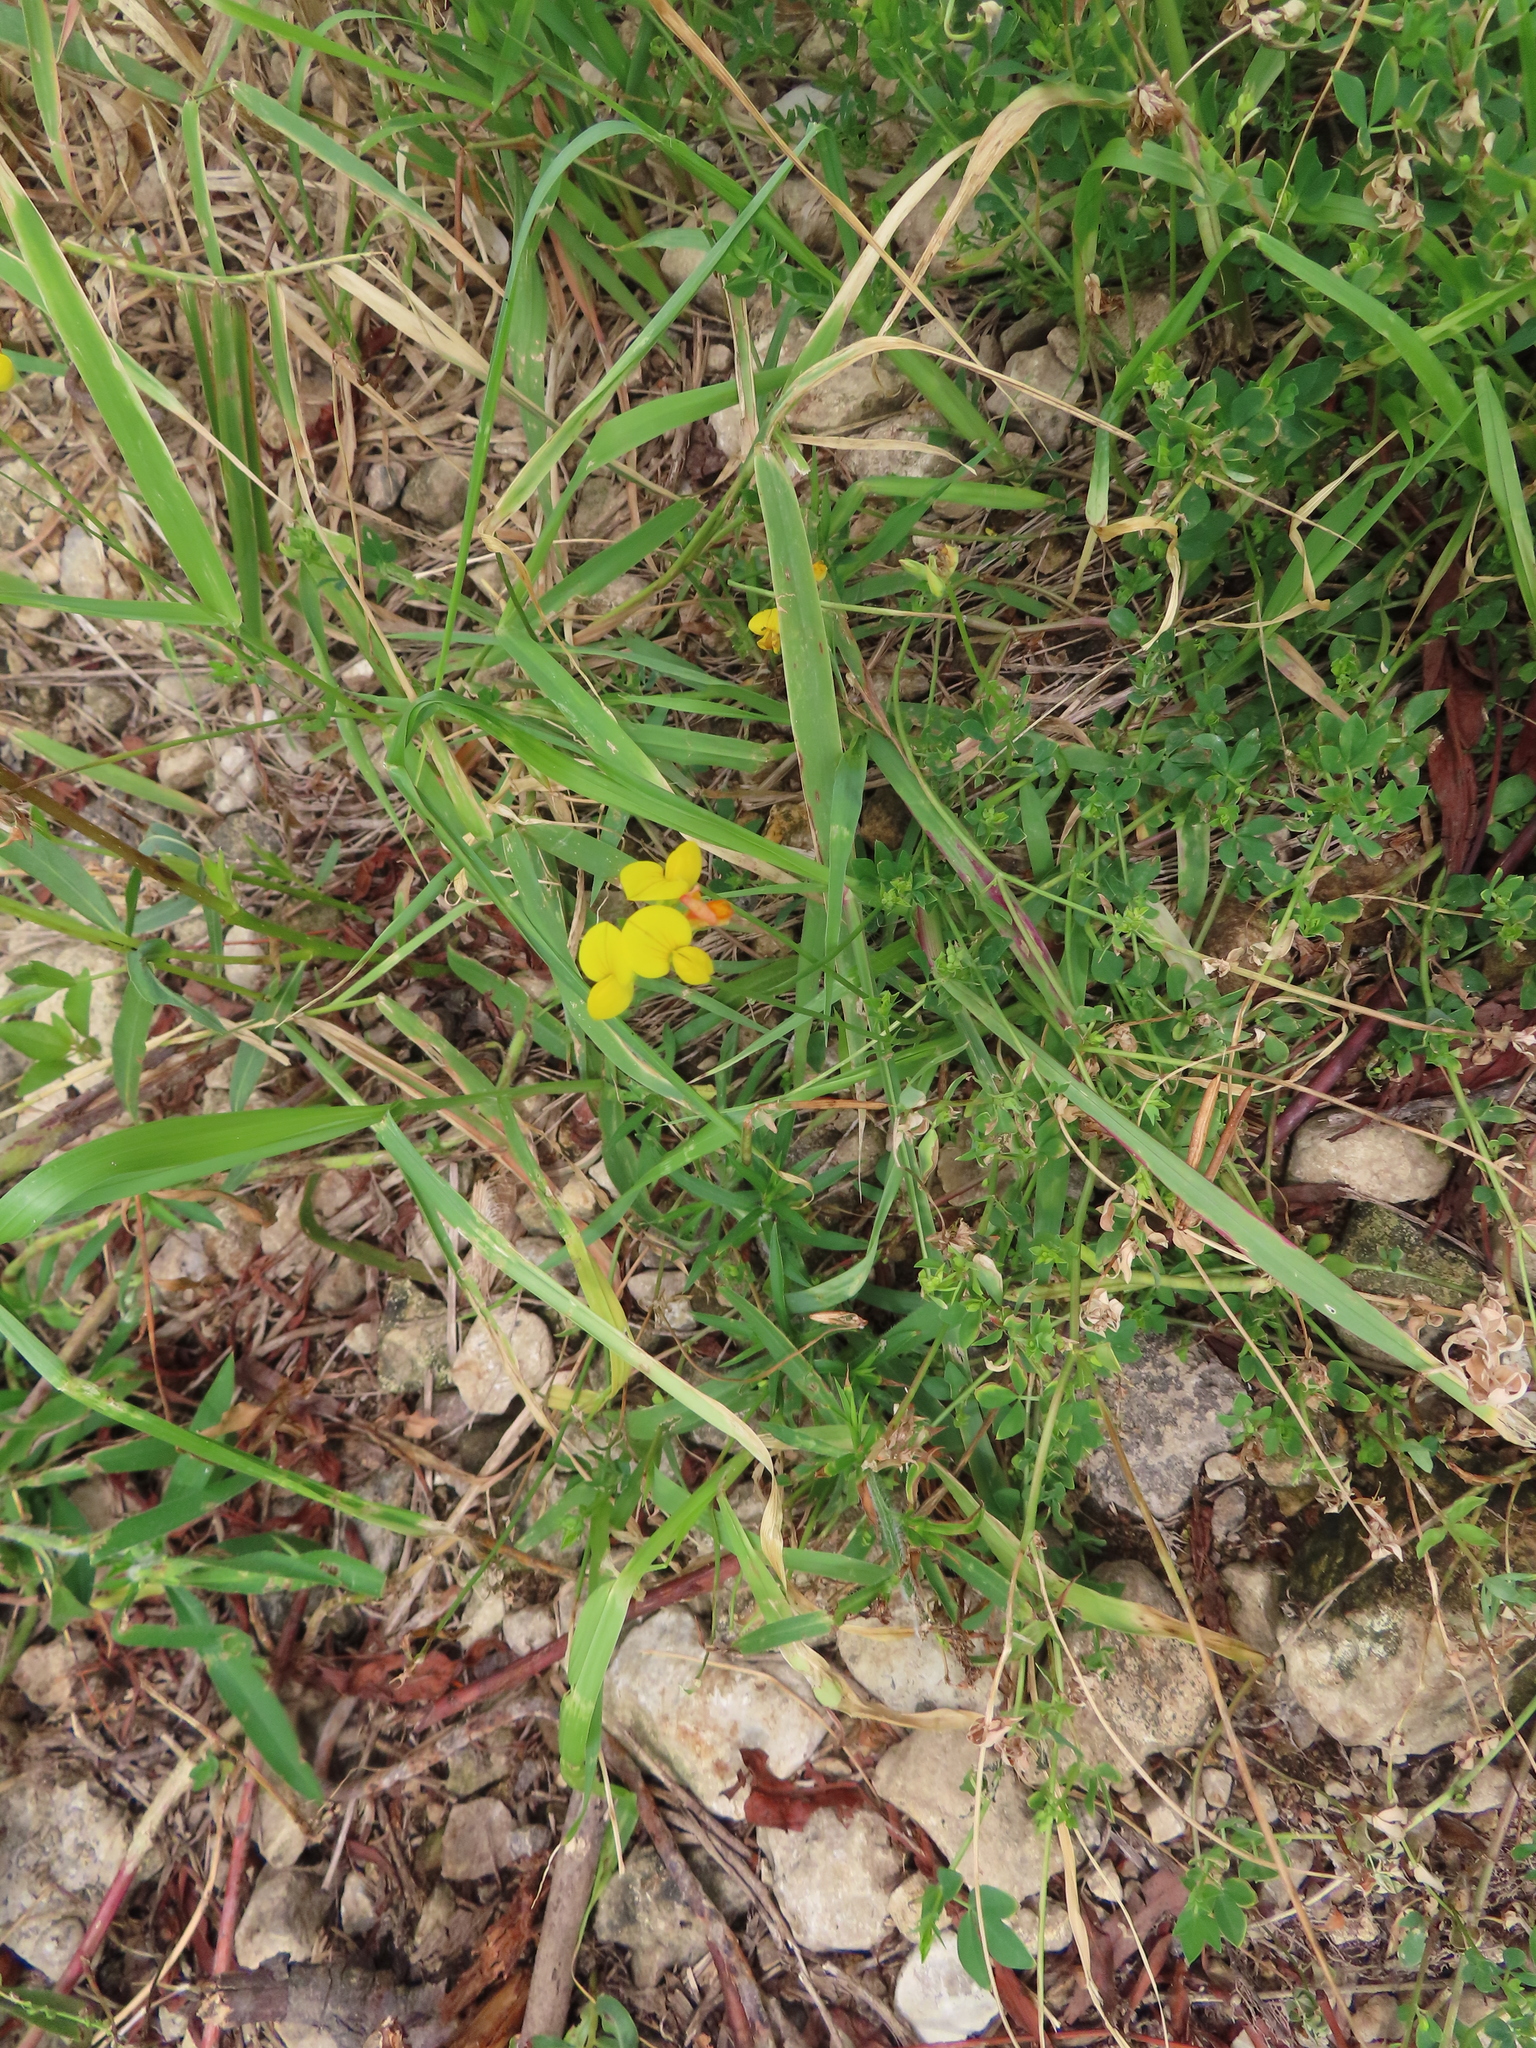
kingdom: Plantae
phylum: Tracheophyta
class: Magnoliopsida
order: Fabales
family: Fabaceae
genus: Lotus
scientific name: Lotus corniculatus
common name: Common bird's-foot-trefoil
